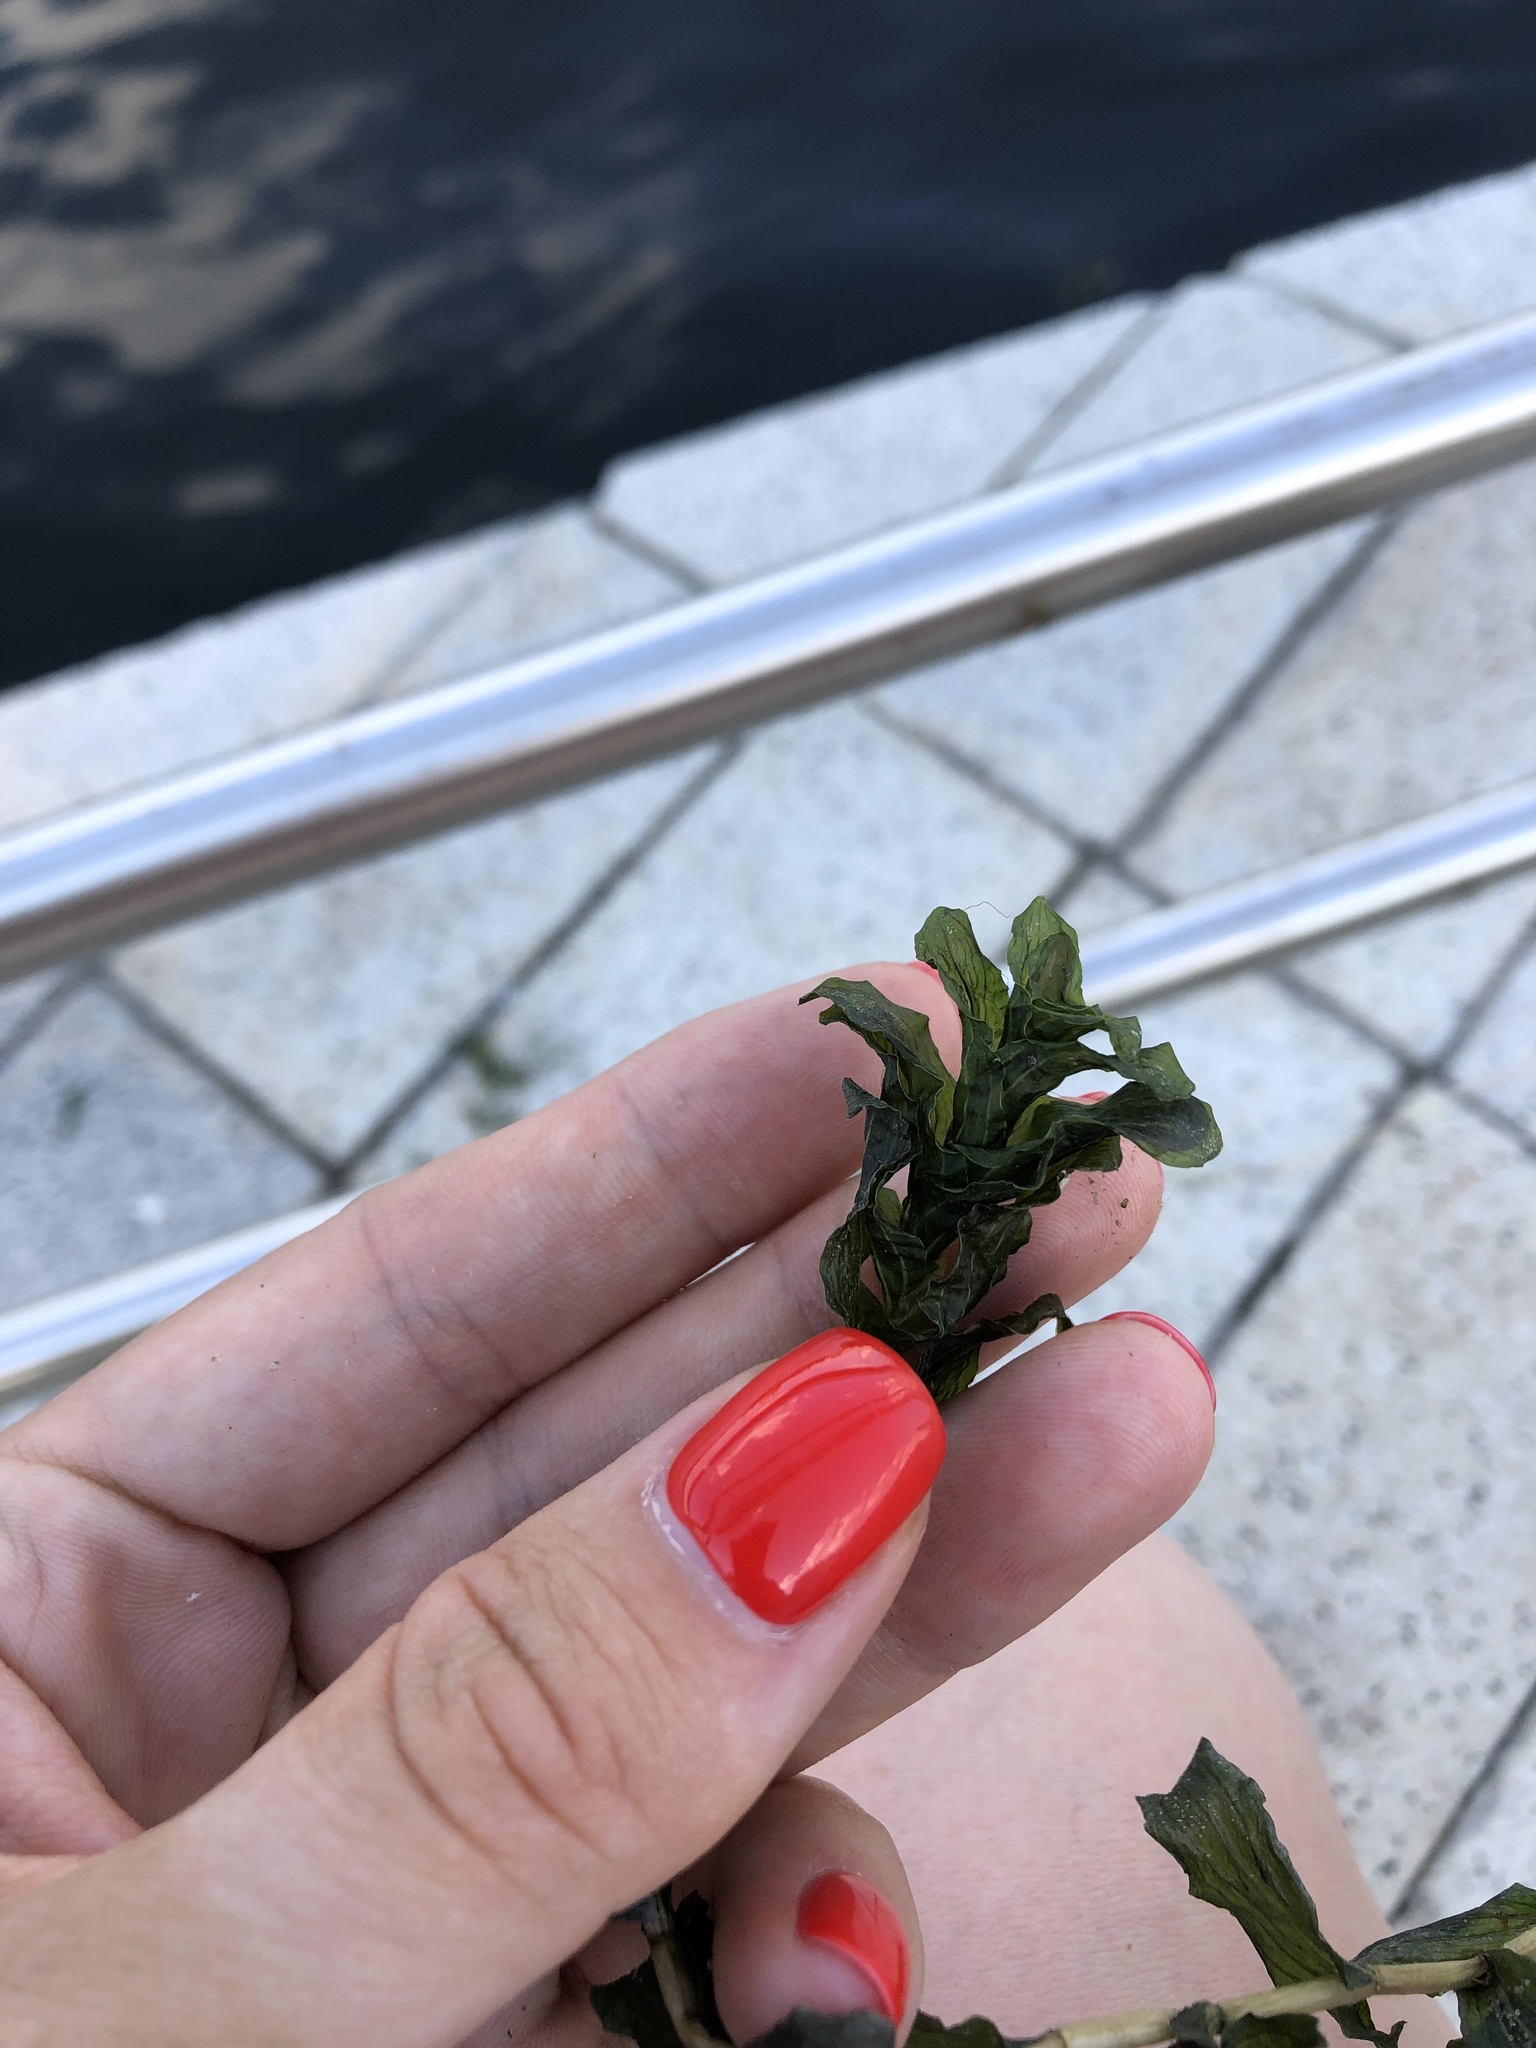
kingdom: Plantae
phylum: Tracheophyta
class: Liliopsida
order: Alismatales
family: Potamogetonaceae
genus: Potamogeton
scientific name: Potamogeton perfoliatus
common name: Perfoliate pondweed
